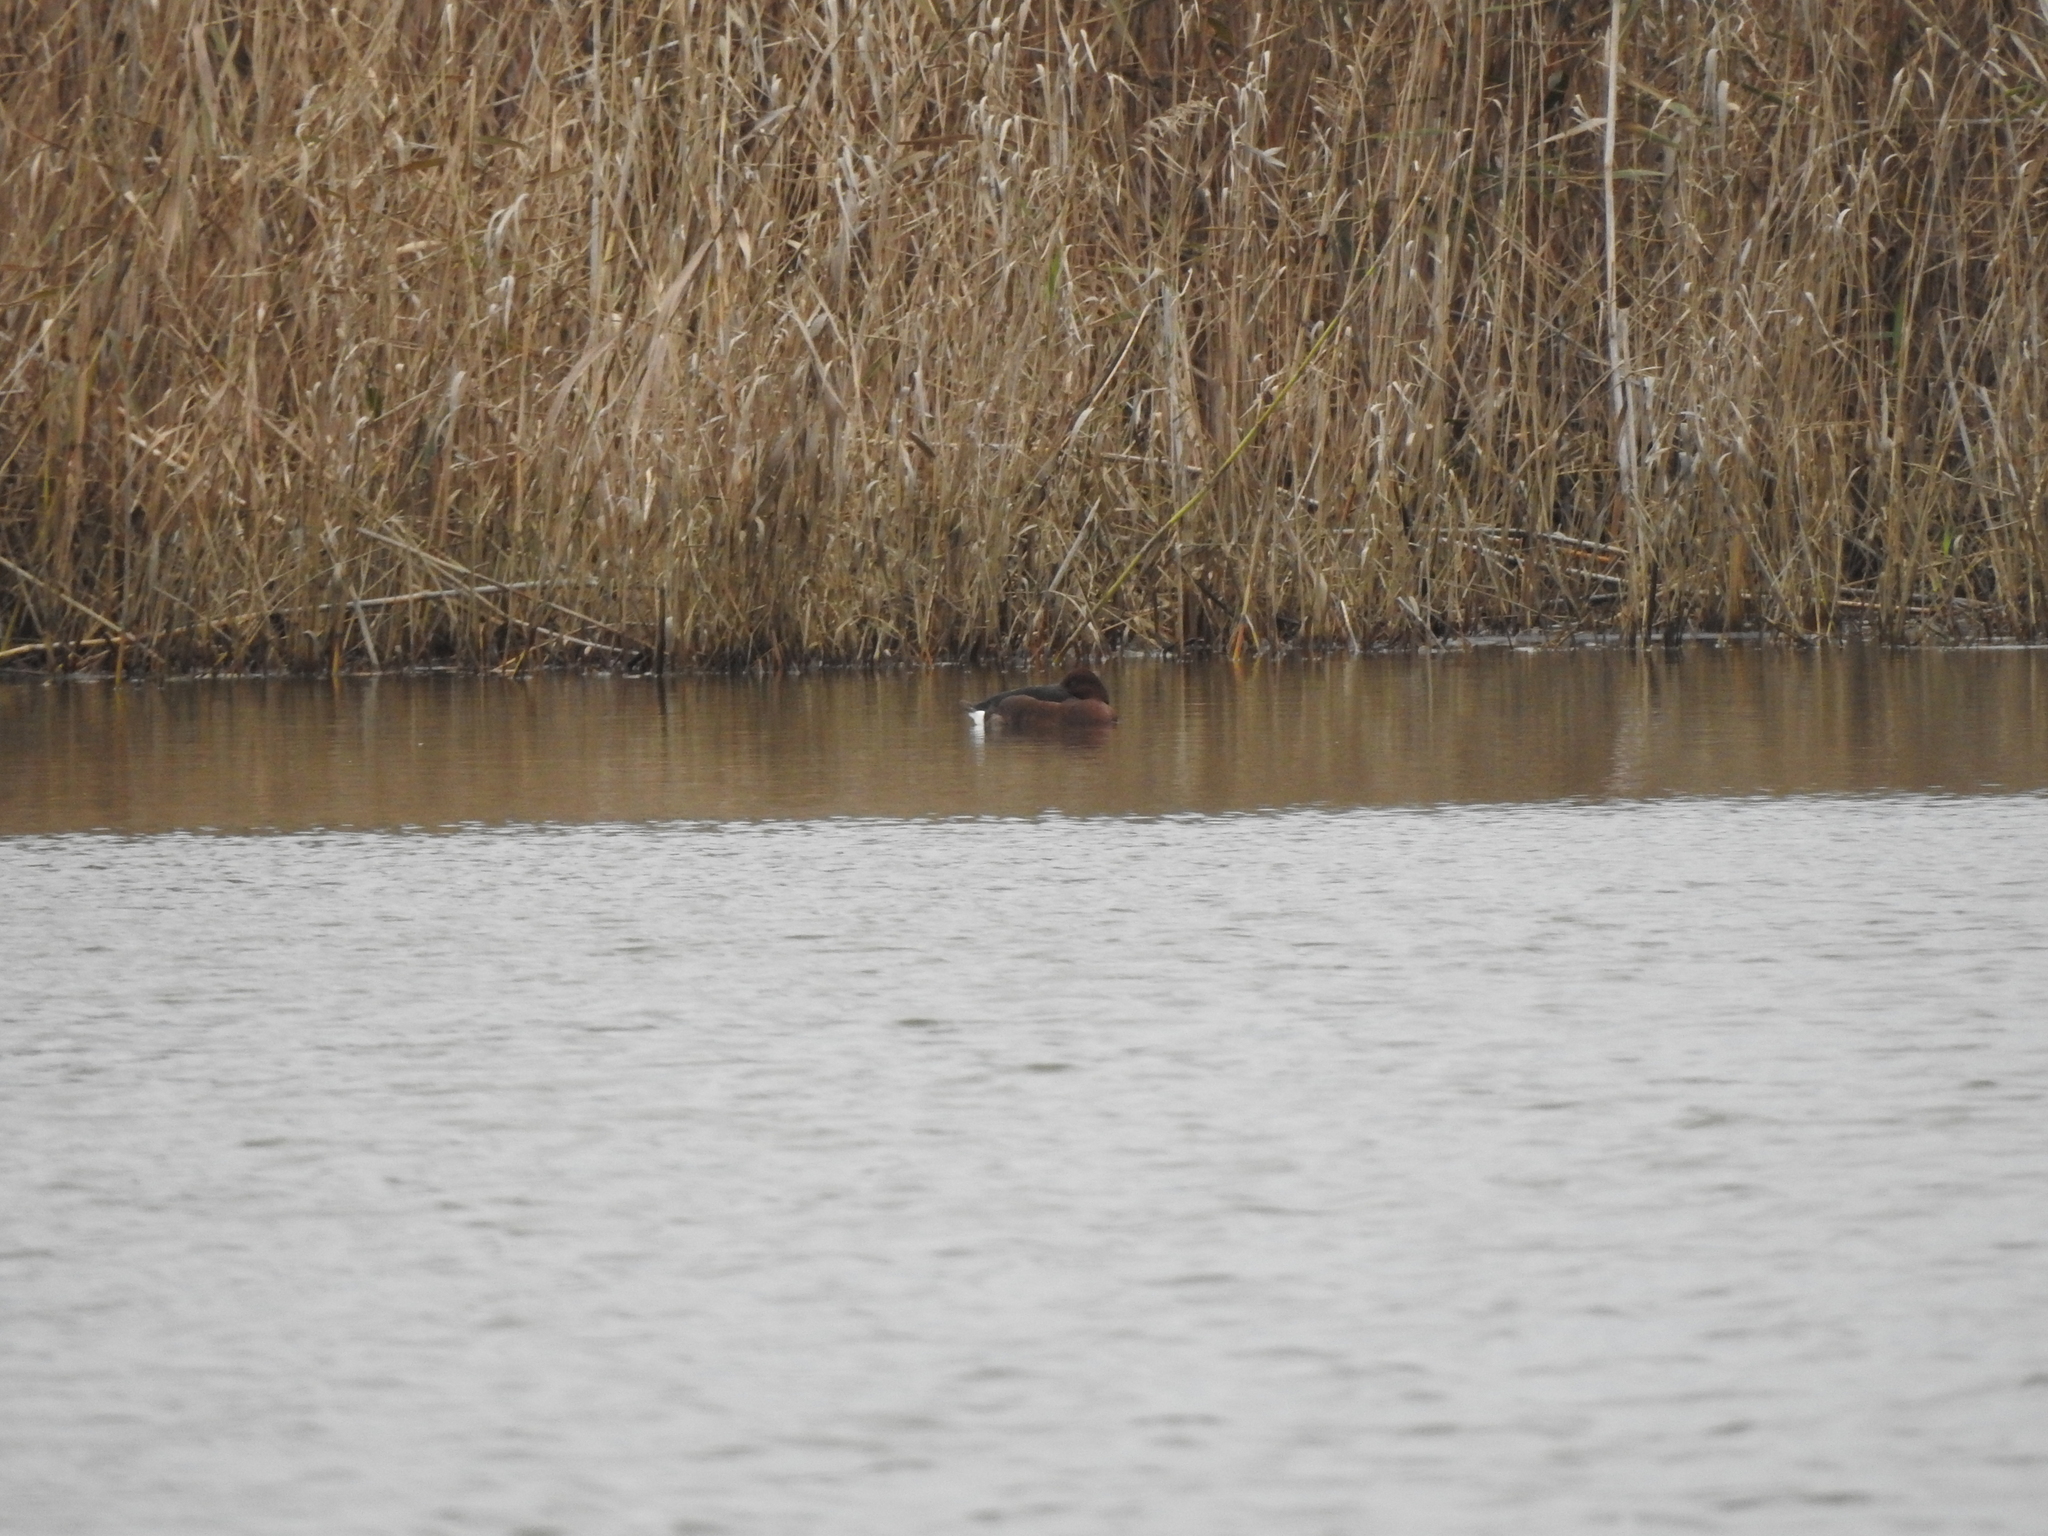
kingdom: Animalia
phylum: Chordata
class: Aves
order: Anseriformes
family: Anatidae
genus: Aythya
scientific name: Aythya nyroca
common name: Ferruginous duck
